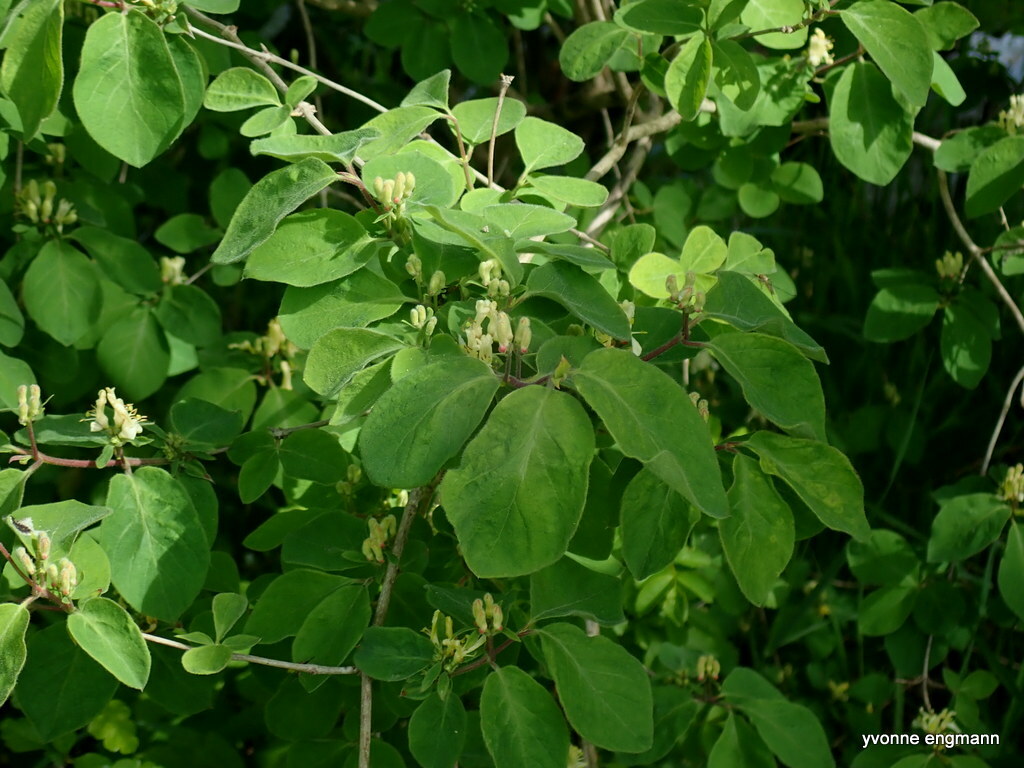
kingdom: Plantae
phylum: Tracheophyta
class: Magnoliopsida
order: Dipsacales
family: Caprifoliaceae
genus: Lonicera
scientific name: Lonicera xylosteum
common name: Fly honeysuckle
